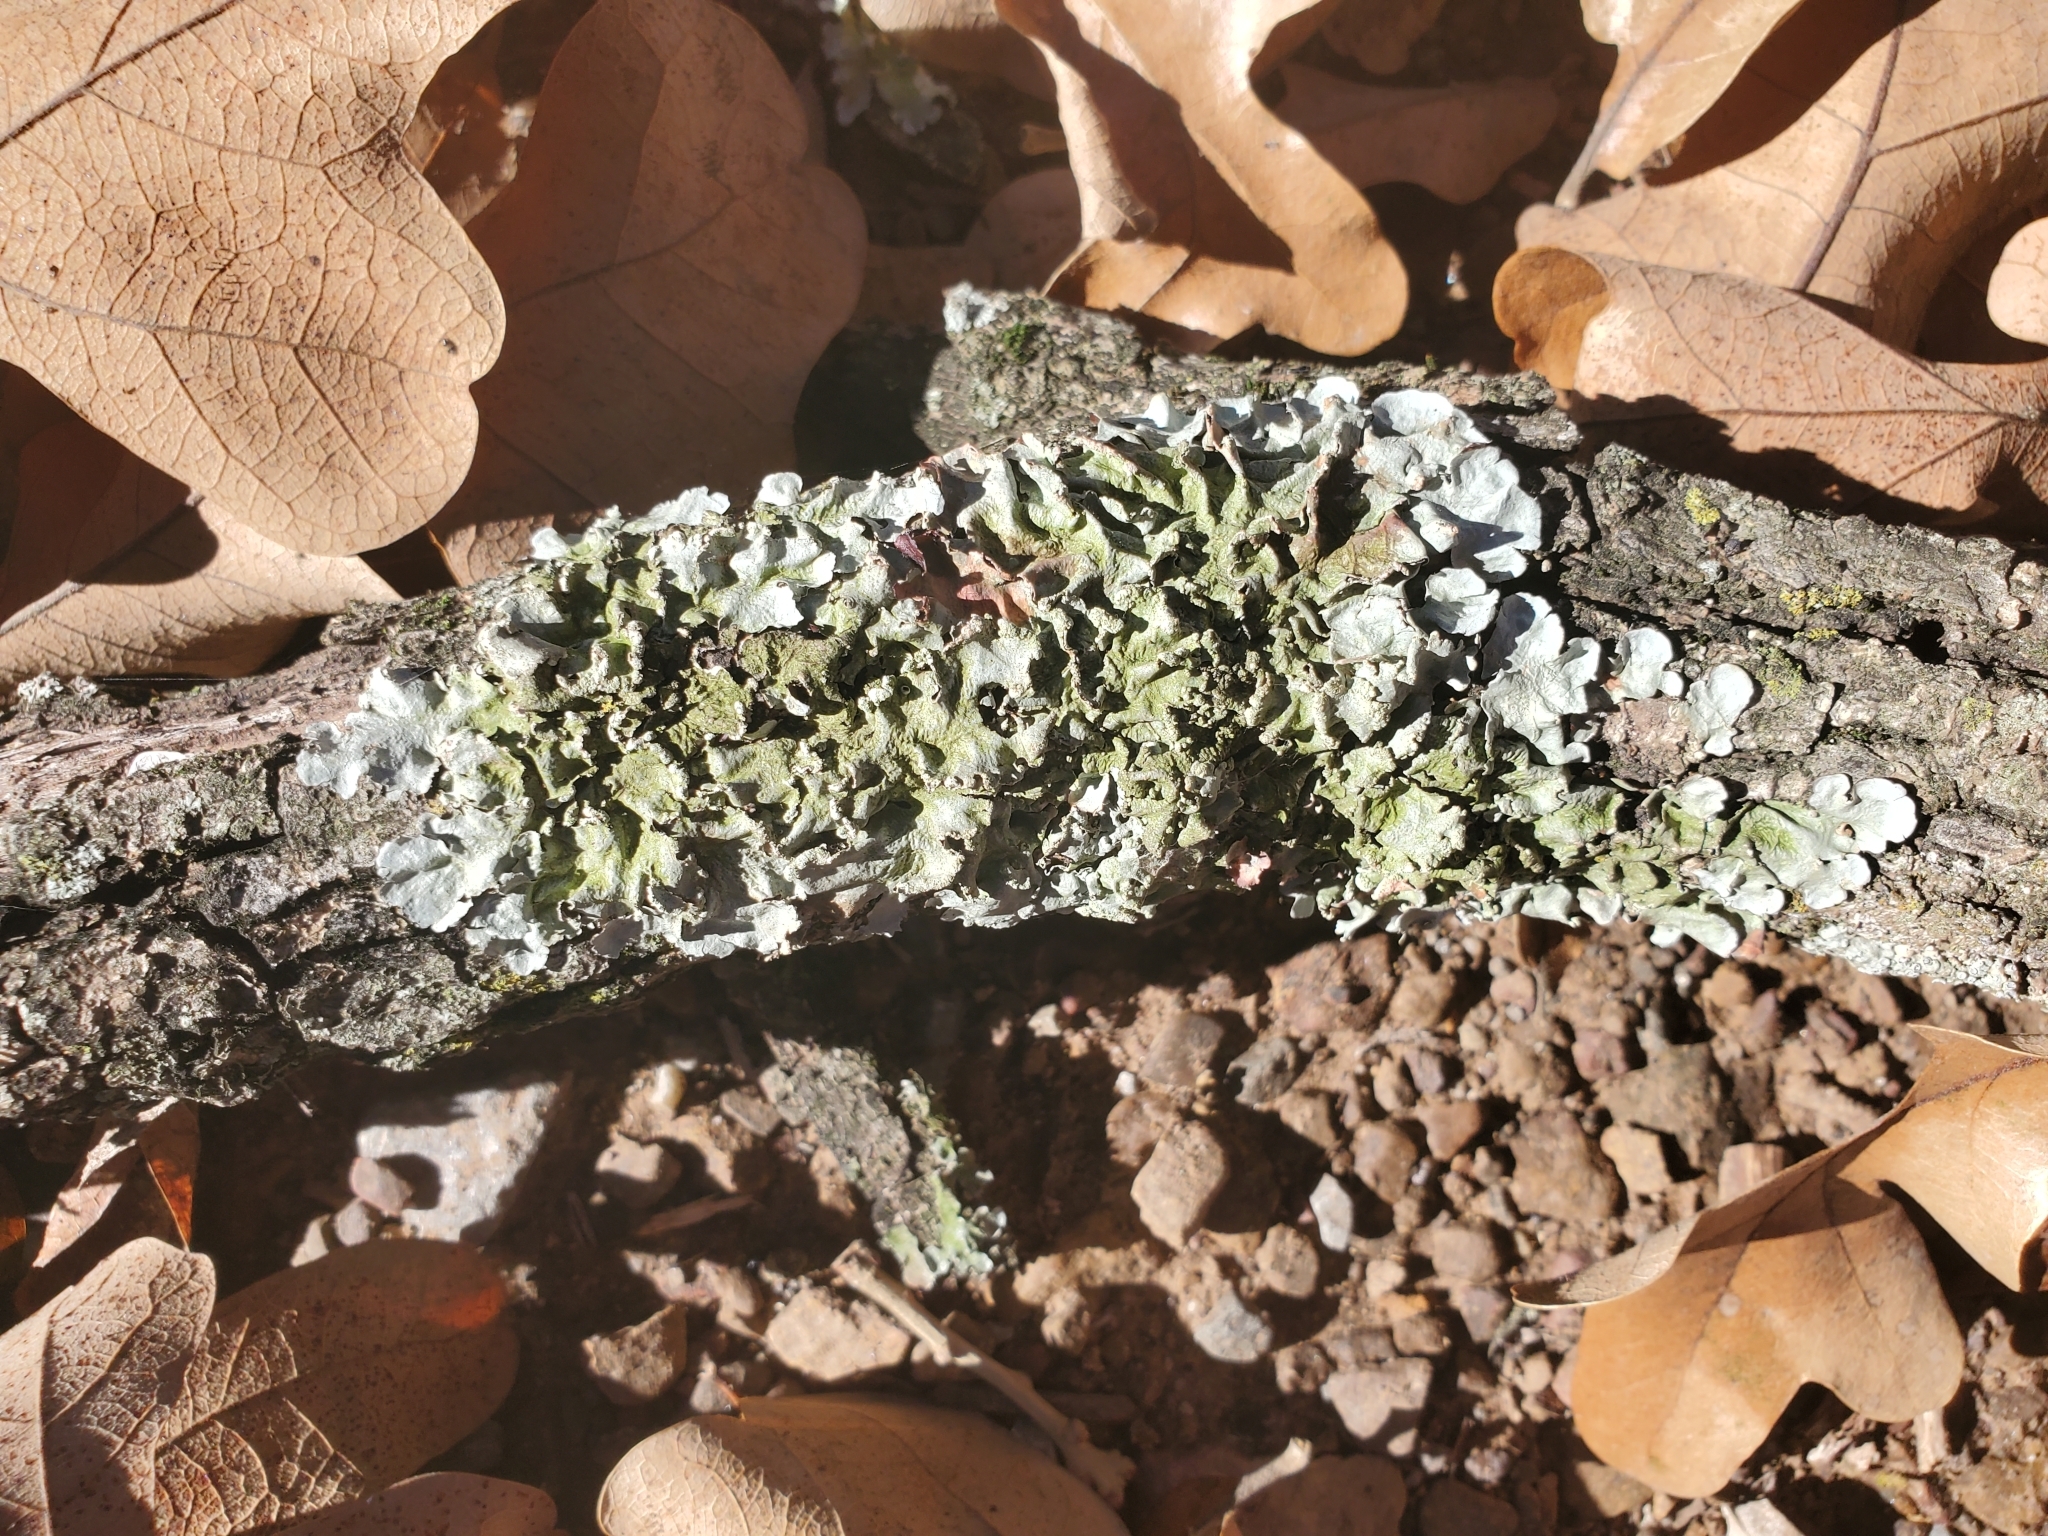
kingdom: Fungi
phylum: Ascomycota
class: Lecanoromycetes
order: Lecanorales
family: Parmeliaceae
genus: Flavoparmelia
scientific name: Flavoparmelia caperata
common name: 40-mile per hour lichen
